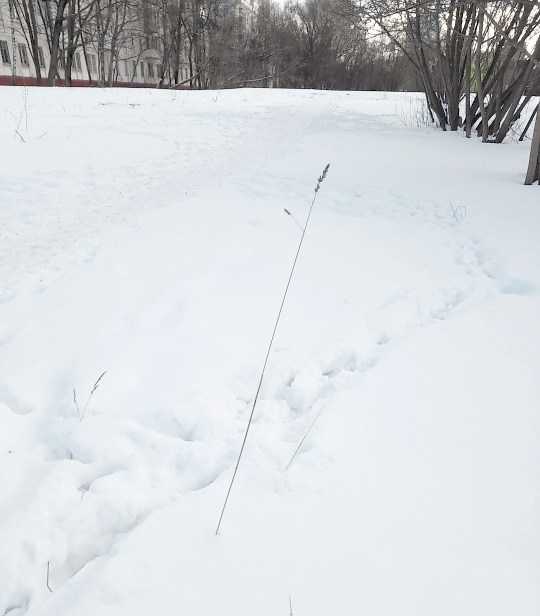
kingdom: Plantae
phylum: Tracheophyta
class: Liliopsida
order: Poales
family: Poaceae
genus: Dactylis
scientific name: Dactylis glomerata
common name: Orchardgrass
